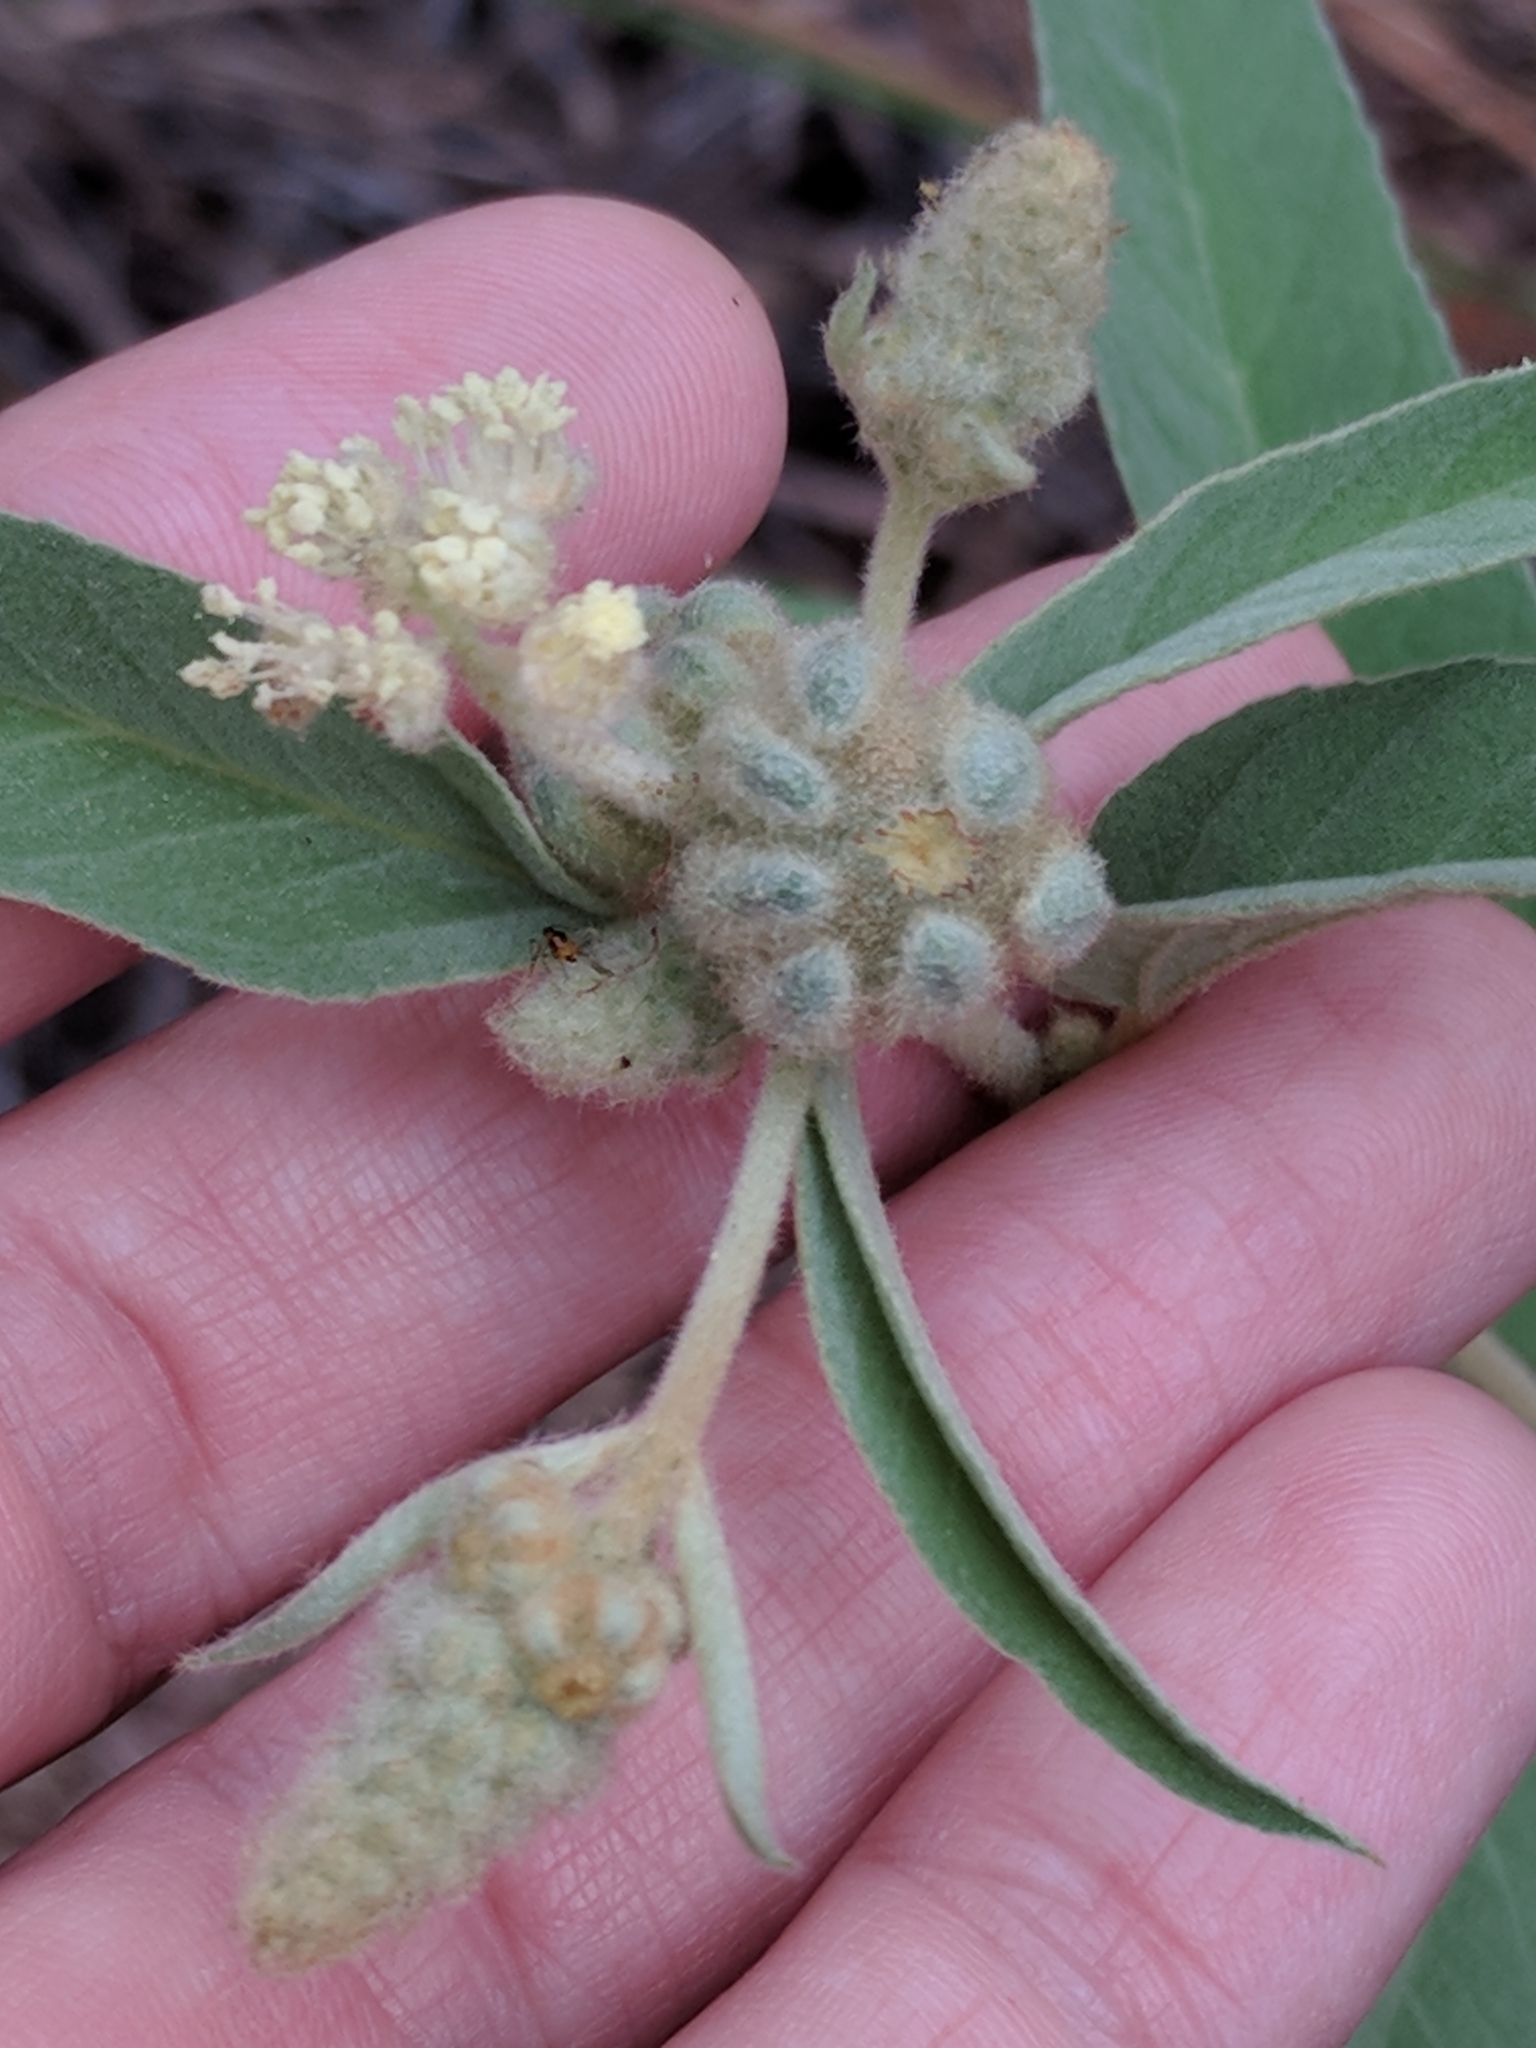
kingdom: Plantae
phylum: Tracheophyta
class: Magnoliopsida
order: Malpighiales
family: Euphorbiaceae
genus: Croton
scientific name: Croton lindheimeri
